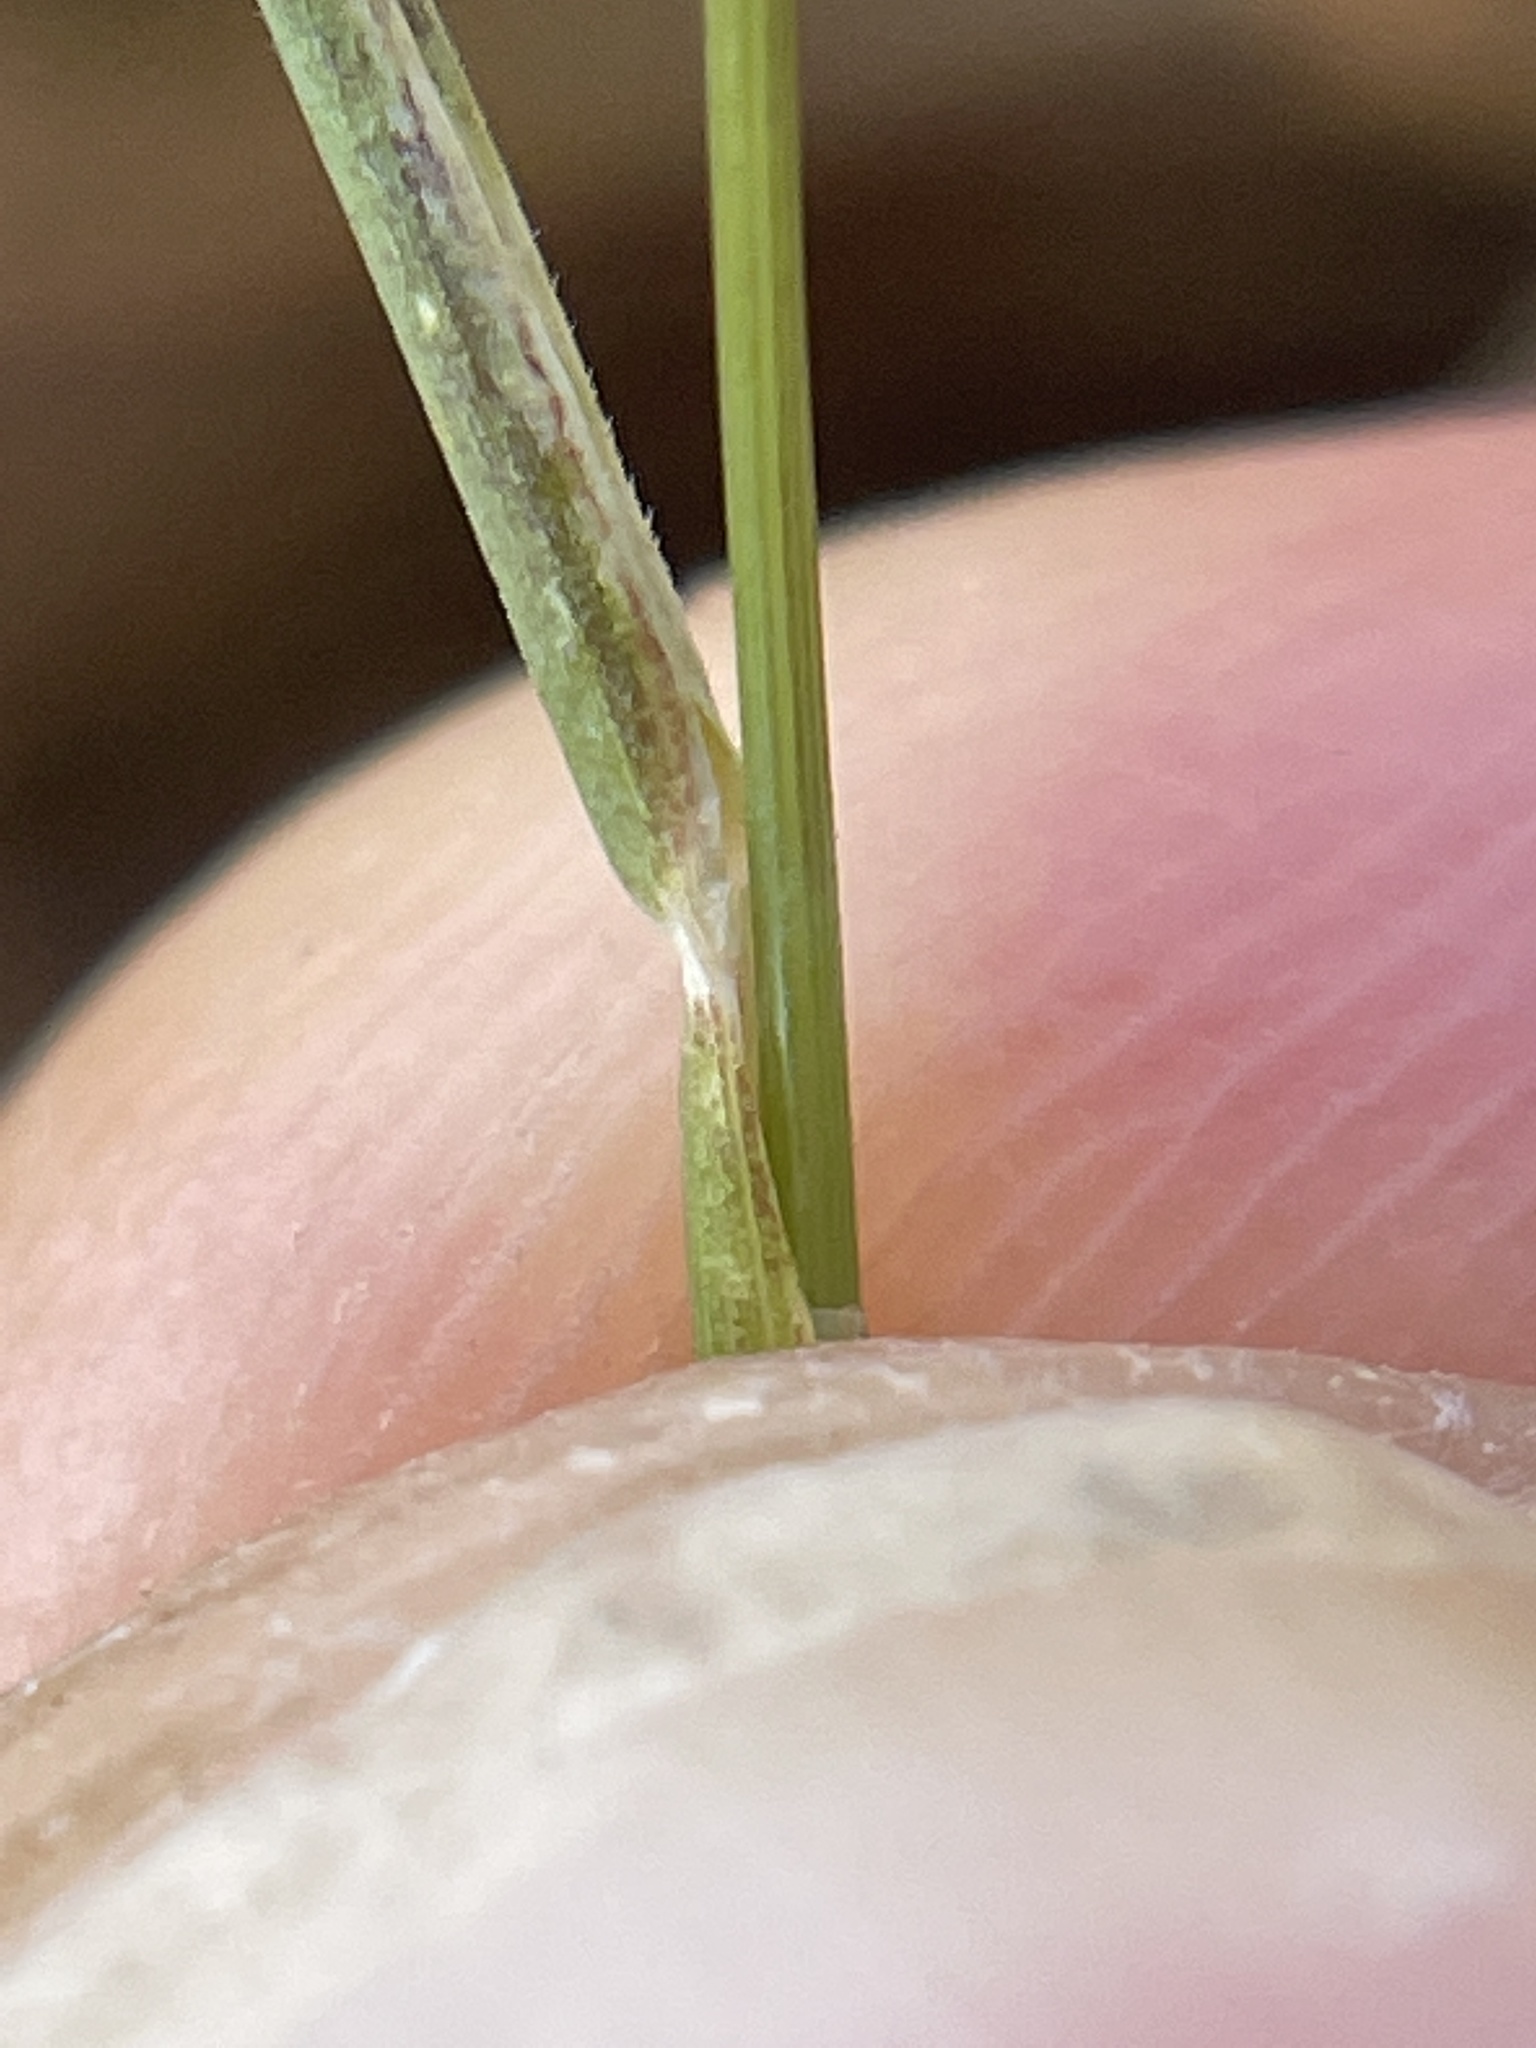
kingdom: Plantae
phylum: Tracheophyta
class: Liliopsida
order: Poales
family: Poaceae
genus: Hordeum
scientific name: Hordeum marinum
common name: Sea barley
